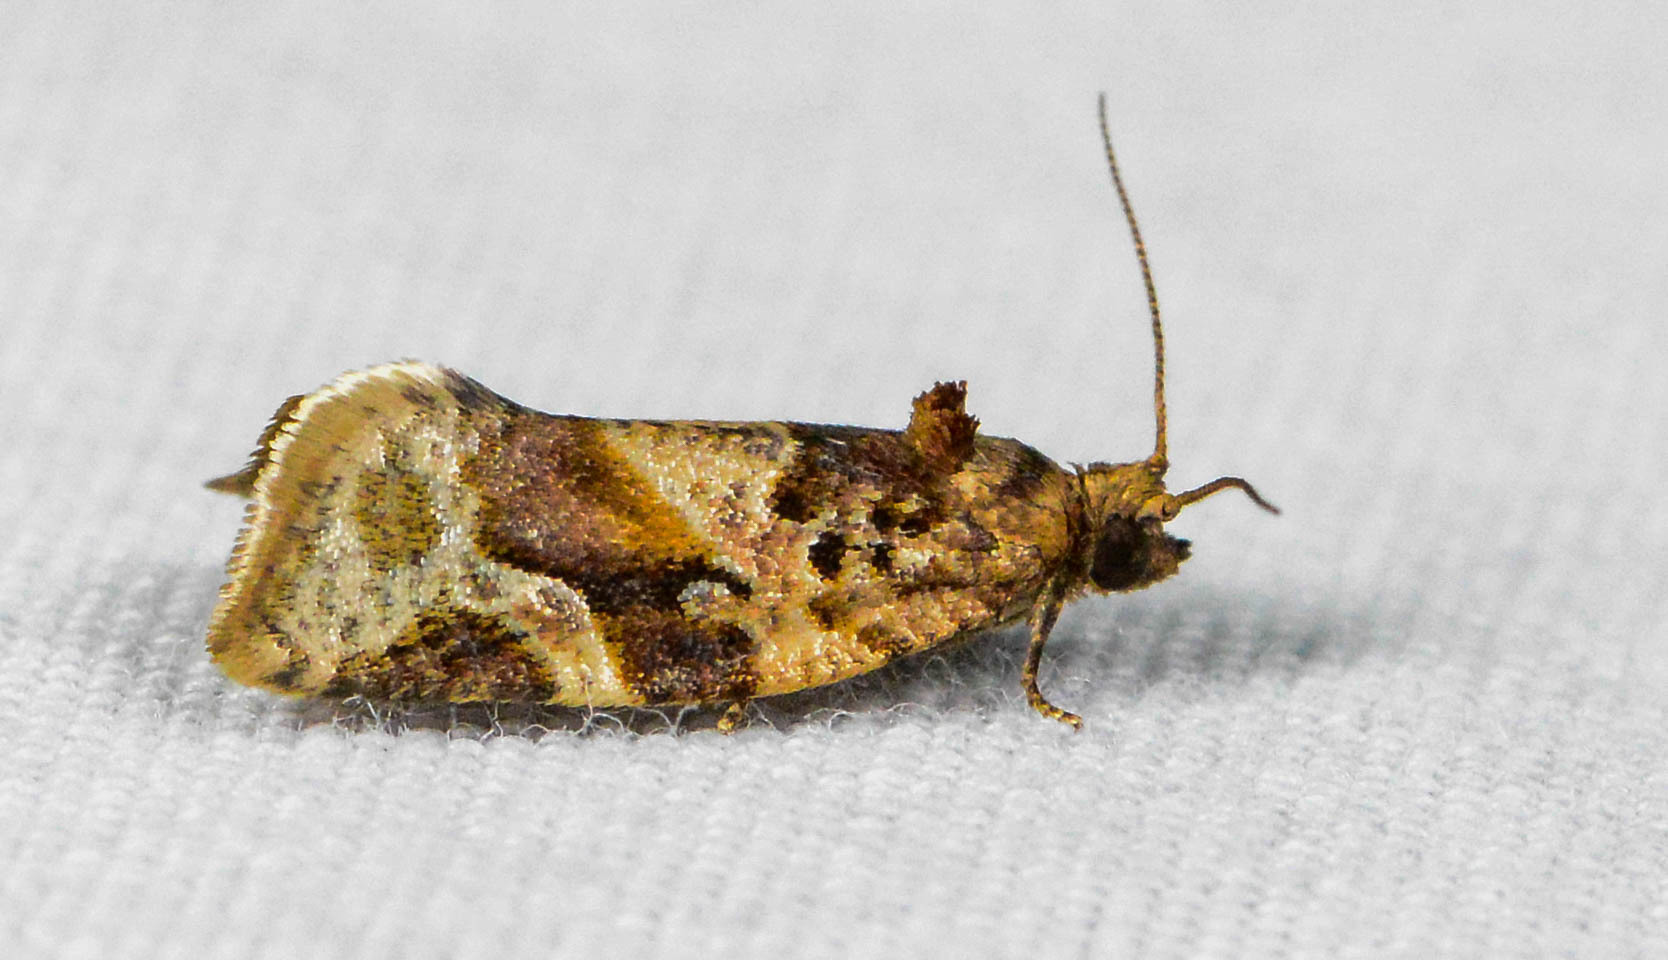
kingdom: Animalia
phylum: Arthropoda
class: Insecta
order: Lepidoptera
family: Tortricidae
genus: Argyrotaenia
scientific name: Argyrotaenia velutinana
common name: Red-banded leafroller moth
